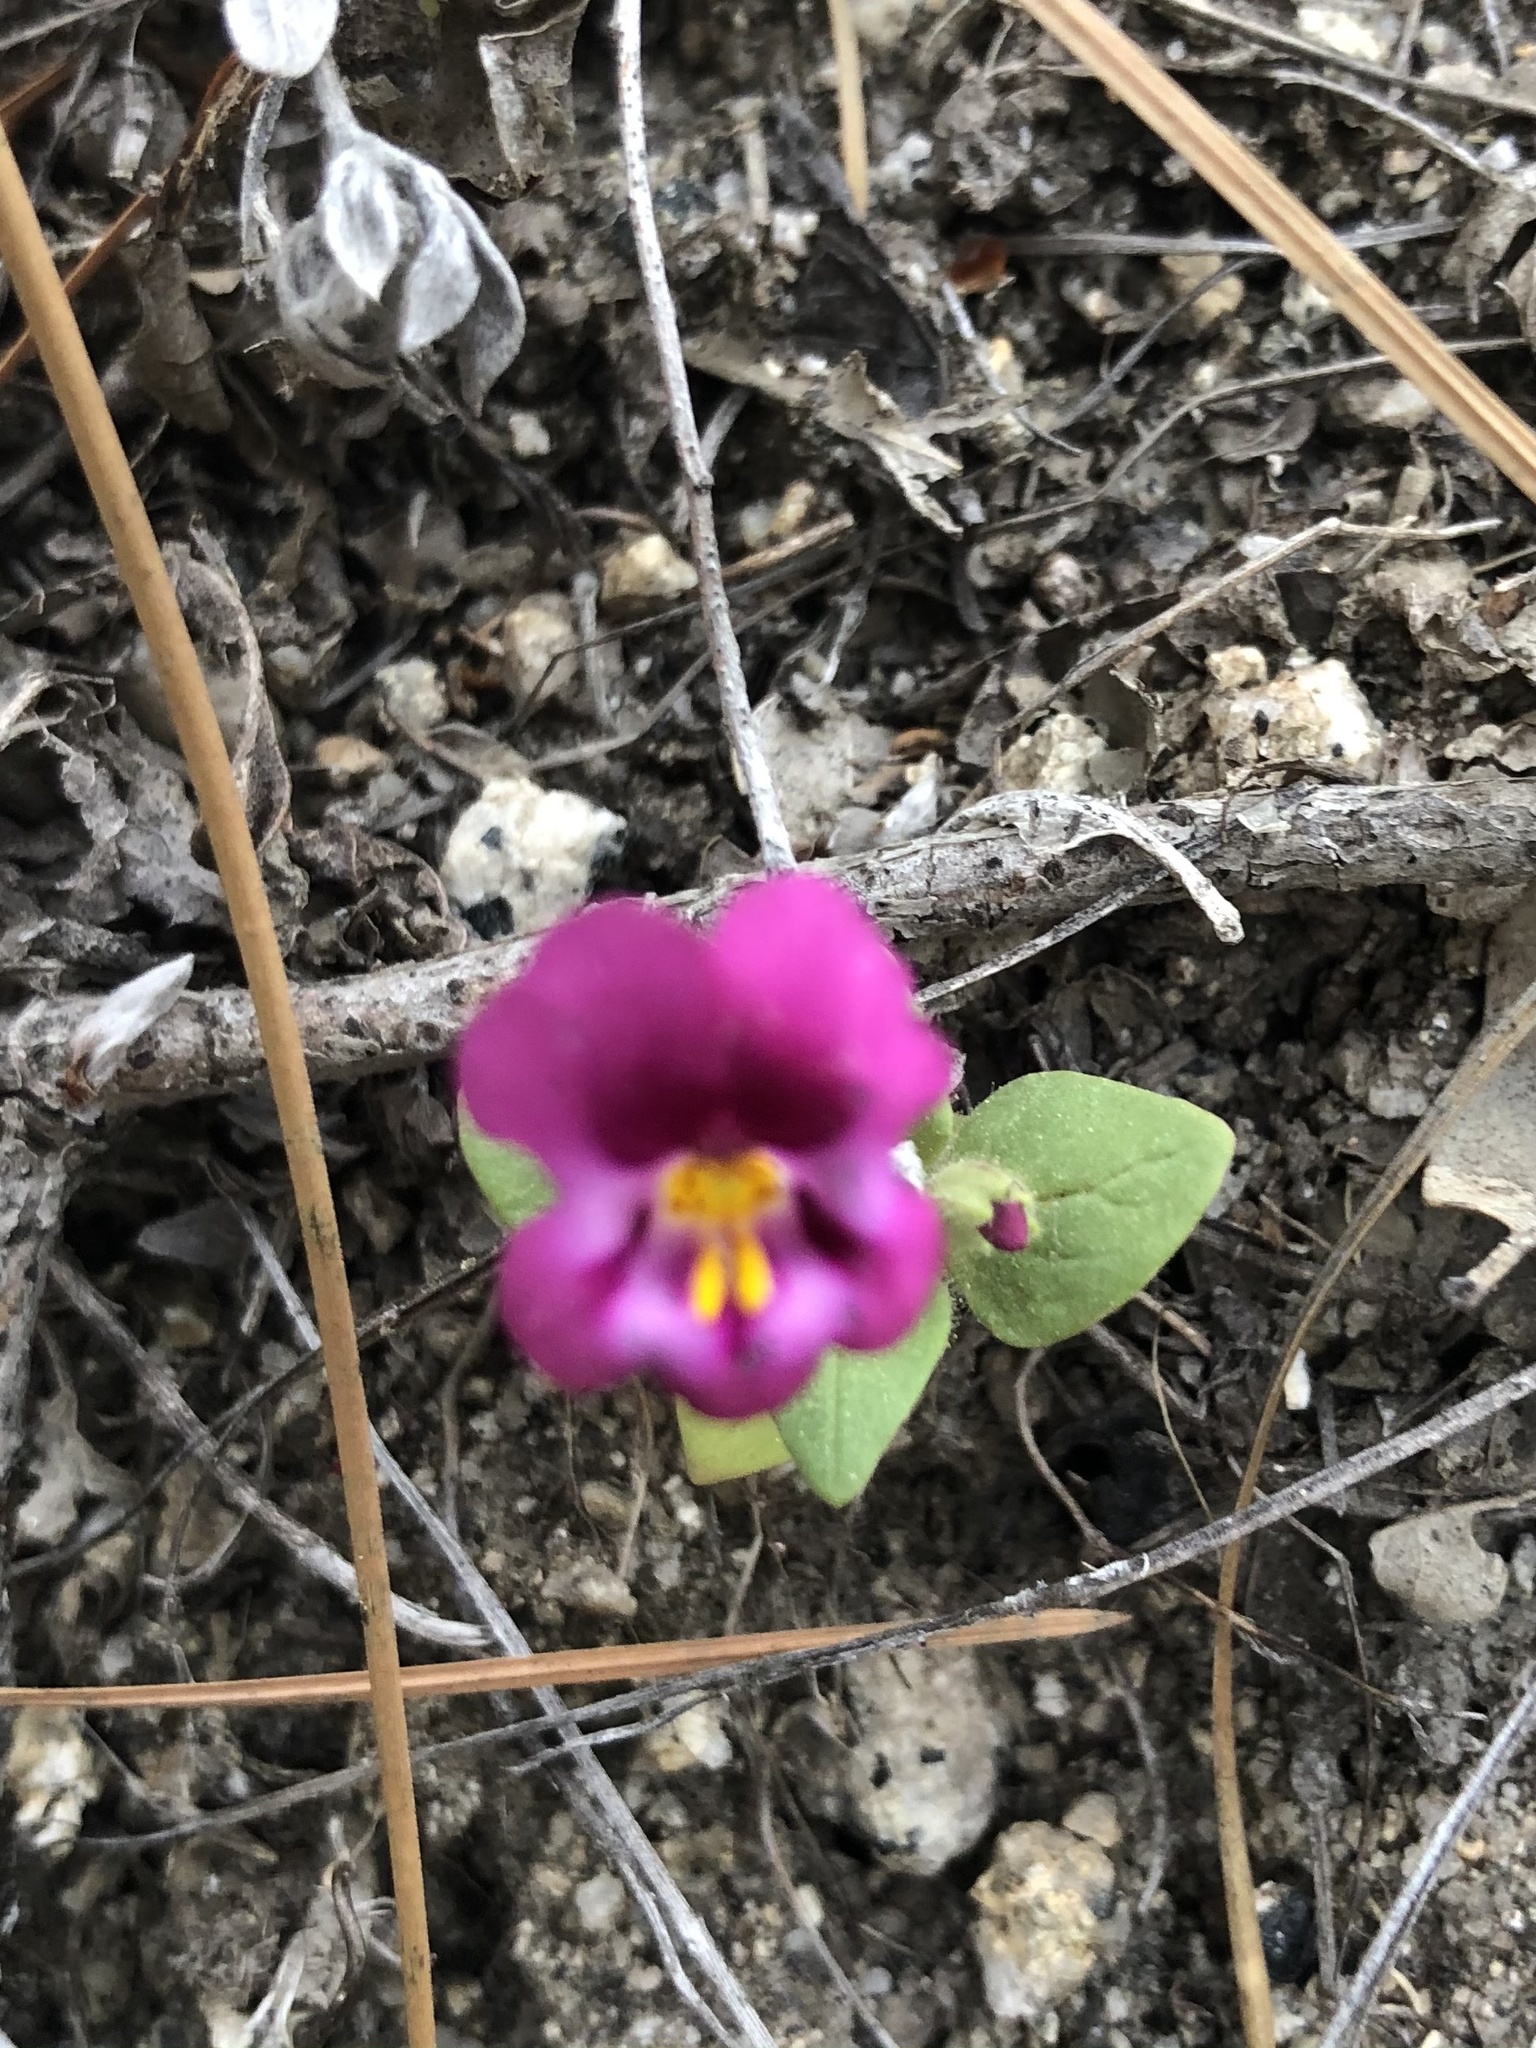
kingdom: Plantae
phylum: Tracheophyta
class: Magnoliopsida
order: Lamiales
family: Phrymaceae
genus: Diplacus
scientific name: Diplacus kelloggii
